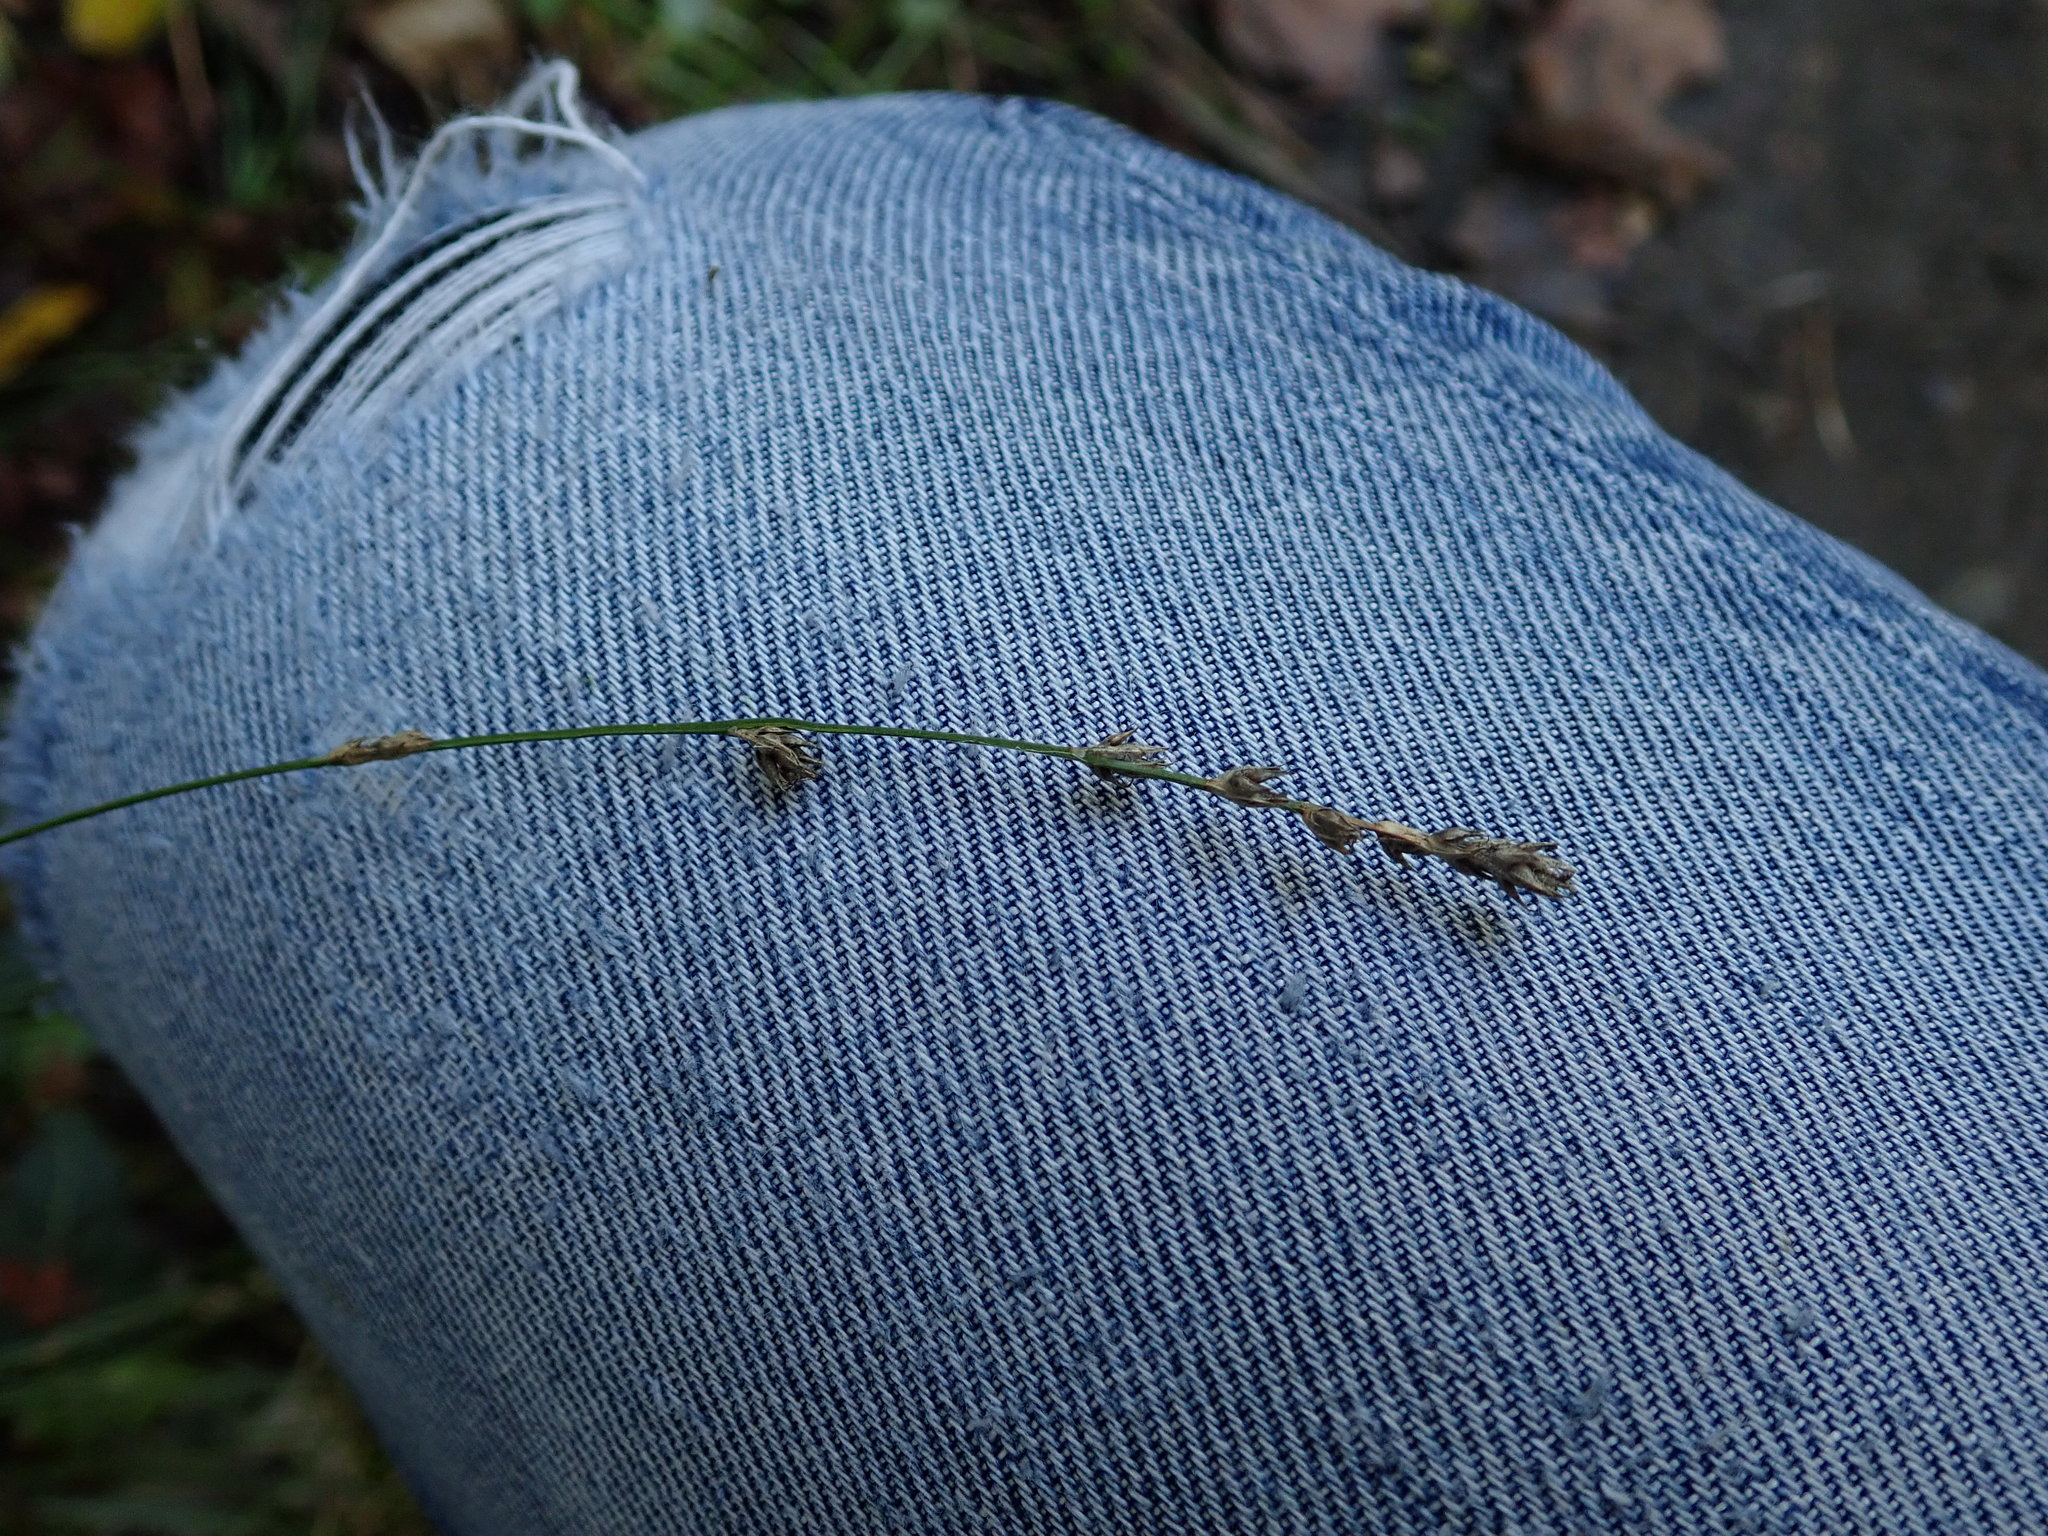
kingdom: Plantae
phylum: Tracheophyta
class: Liliopsida
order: Poales
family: Cyperaceae
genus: Carex
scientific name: Carex divulsa
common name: Grassland sedge
